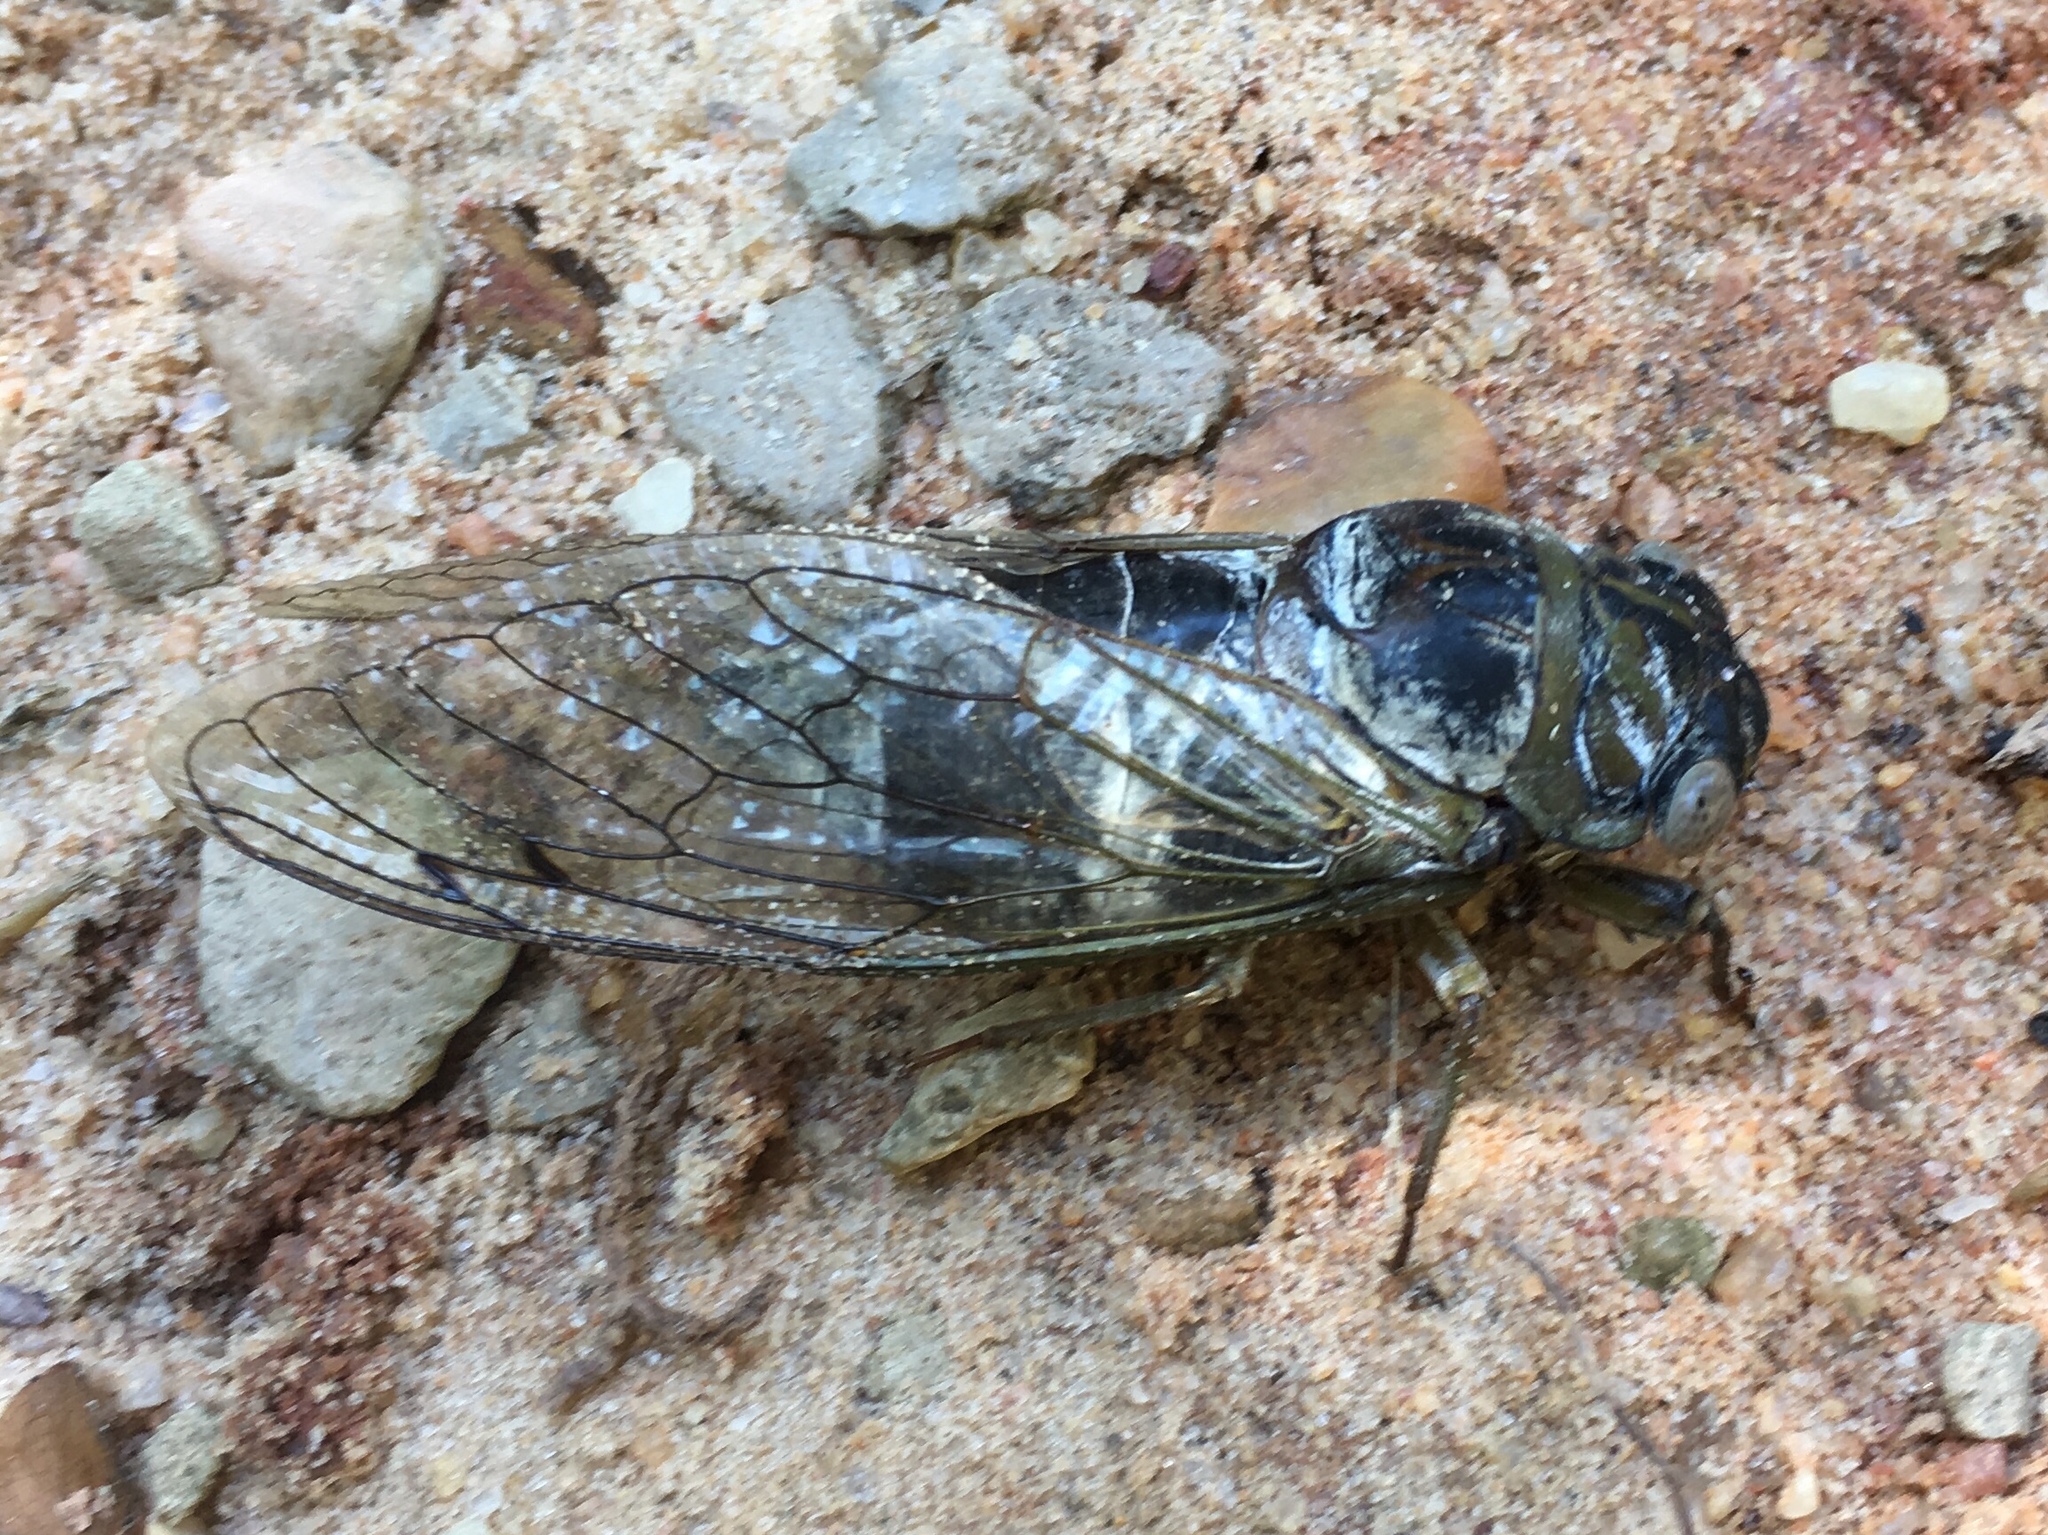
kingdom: Animalia
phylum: Arthropoda
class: Insecta
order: Hemiptera
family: Cicadidae
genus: Diceroprocta
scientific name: Diceroprocta grossa
